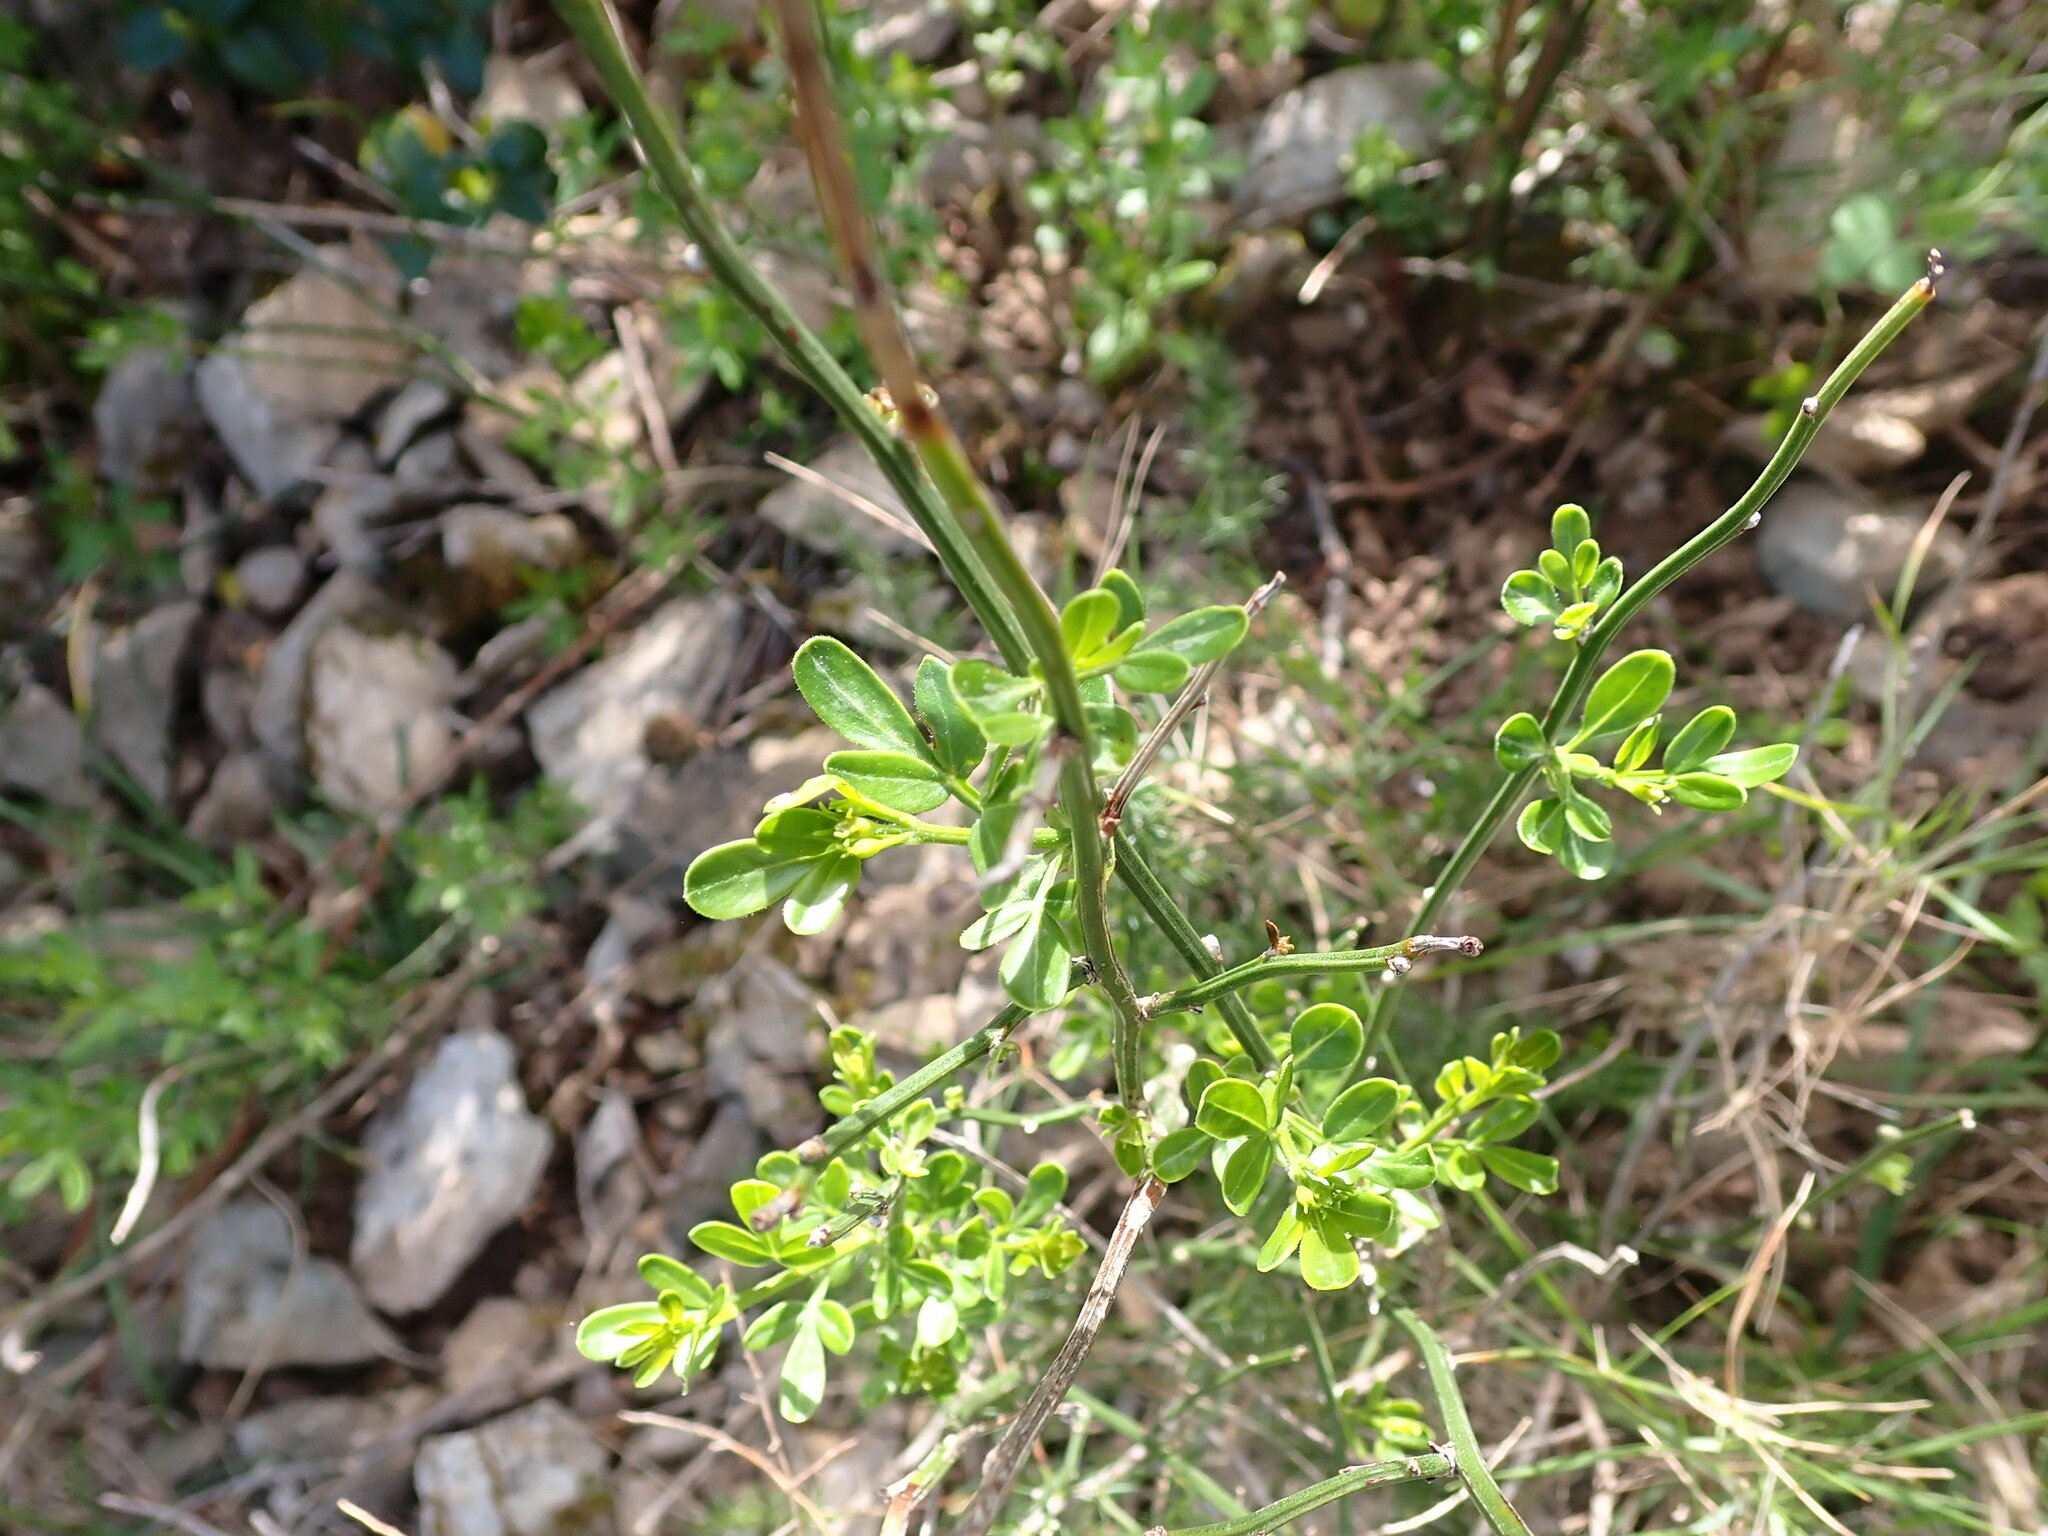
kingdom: Plantae
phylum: Tracheophyta
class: Magnoliopsida
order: Lamiales
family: Oleaceae
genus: Chrysojasminum
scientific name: Chrysojasminum fruticans
